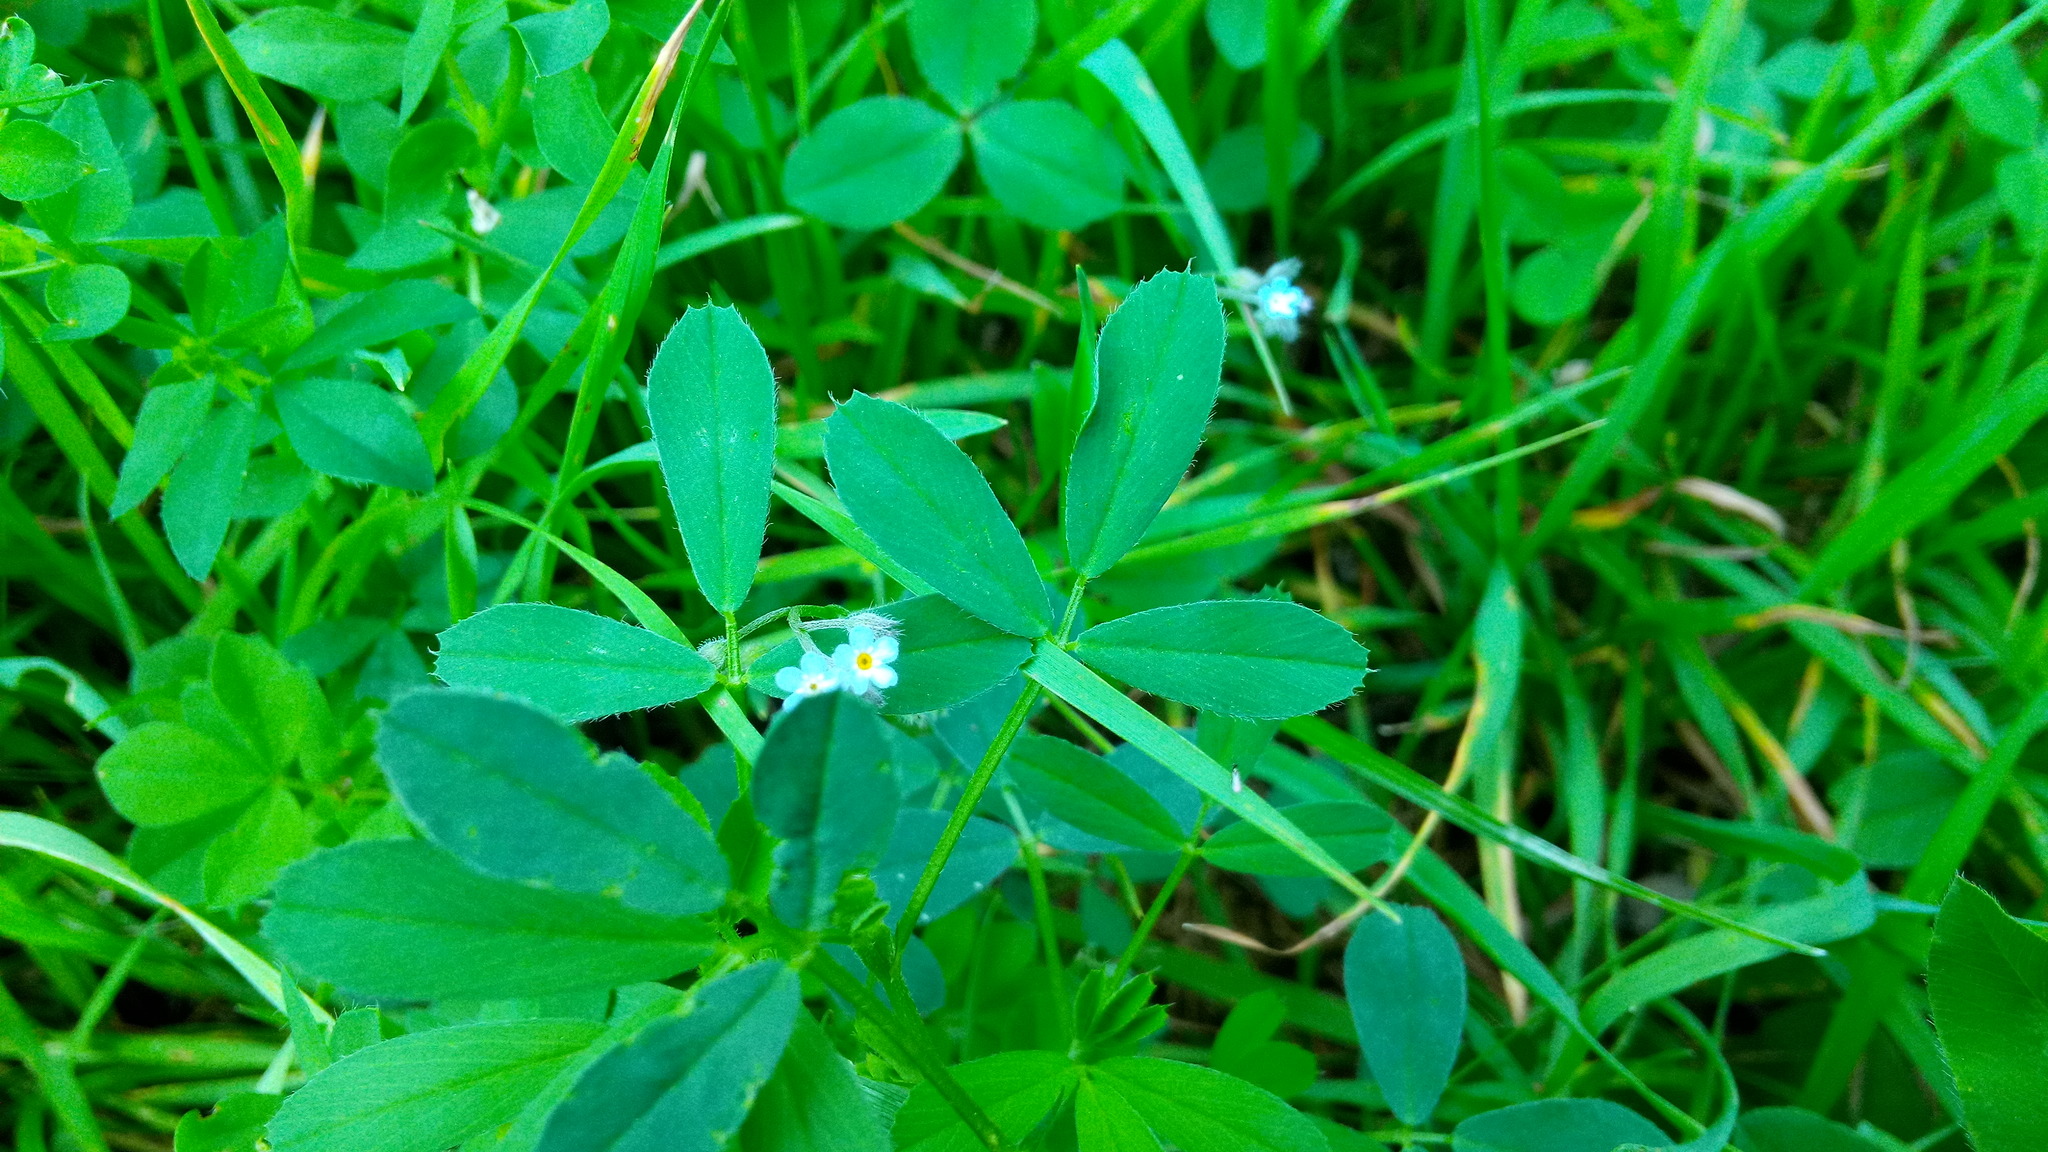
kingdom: Plantae
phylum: Tracheophyta
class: Magnoliopsida
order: Boraginales
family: Boraginaceae
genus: Myosotis
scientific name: Myosotis arvensis
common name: Field forget-me-not
